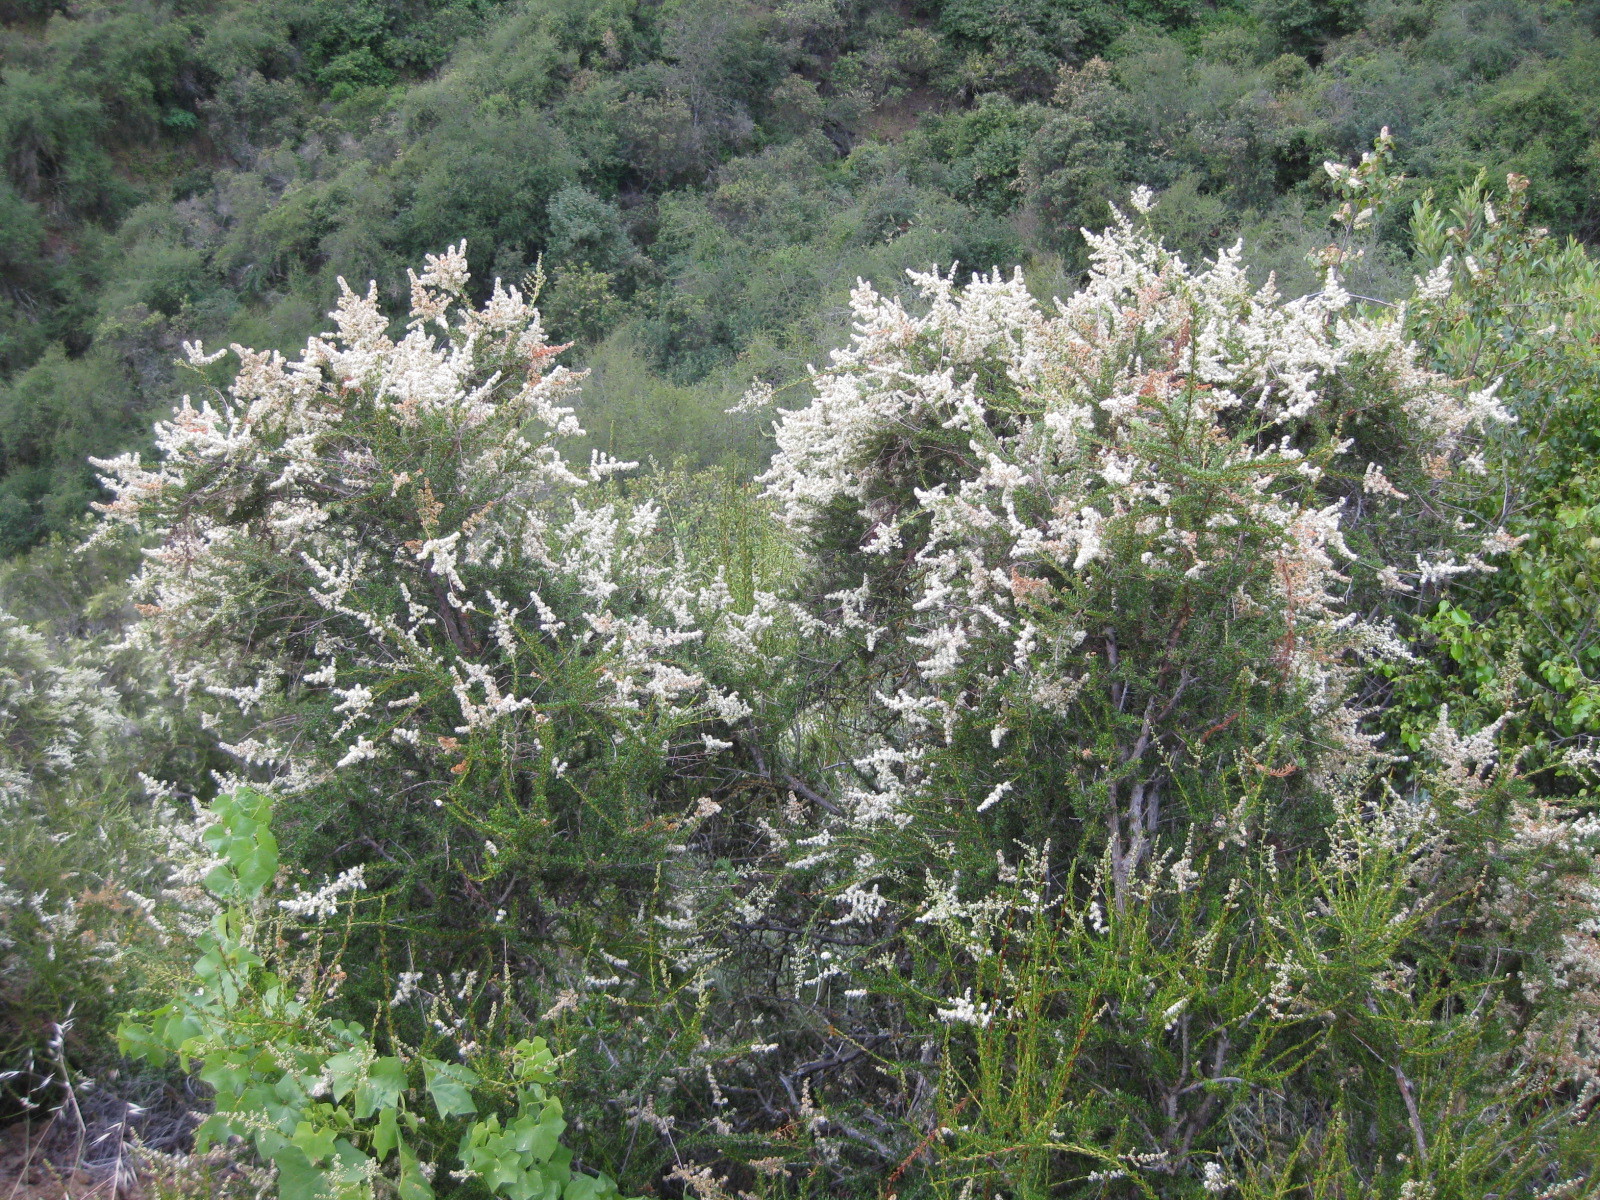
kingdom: Plantae
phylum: Tracheophyta
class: Magnoliopsida
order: Rosales
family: Rosaceae
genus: Adenostoma
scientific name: Adenostoma fasciculatum
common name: Chamise
